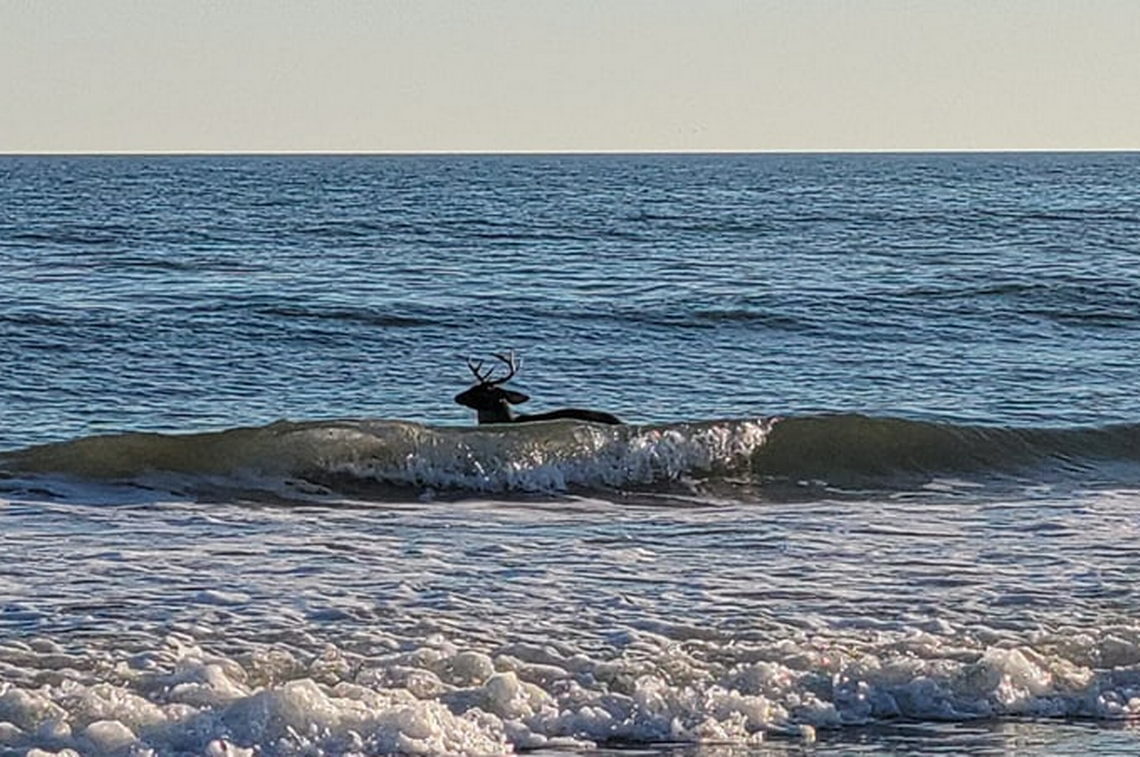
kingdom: Animalia
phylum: Chordata
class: Mammalia
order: Artiodactyla
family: Cervidae
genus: Odocoileus
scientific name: Odocoileus virginianus
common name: White-tailed deer
